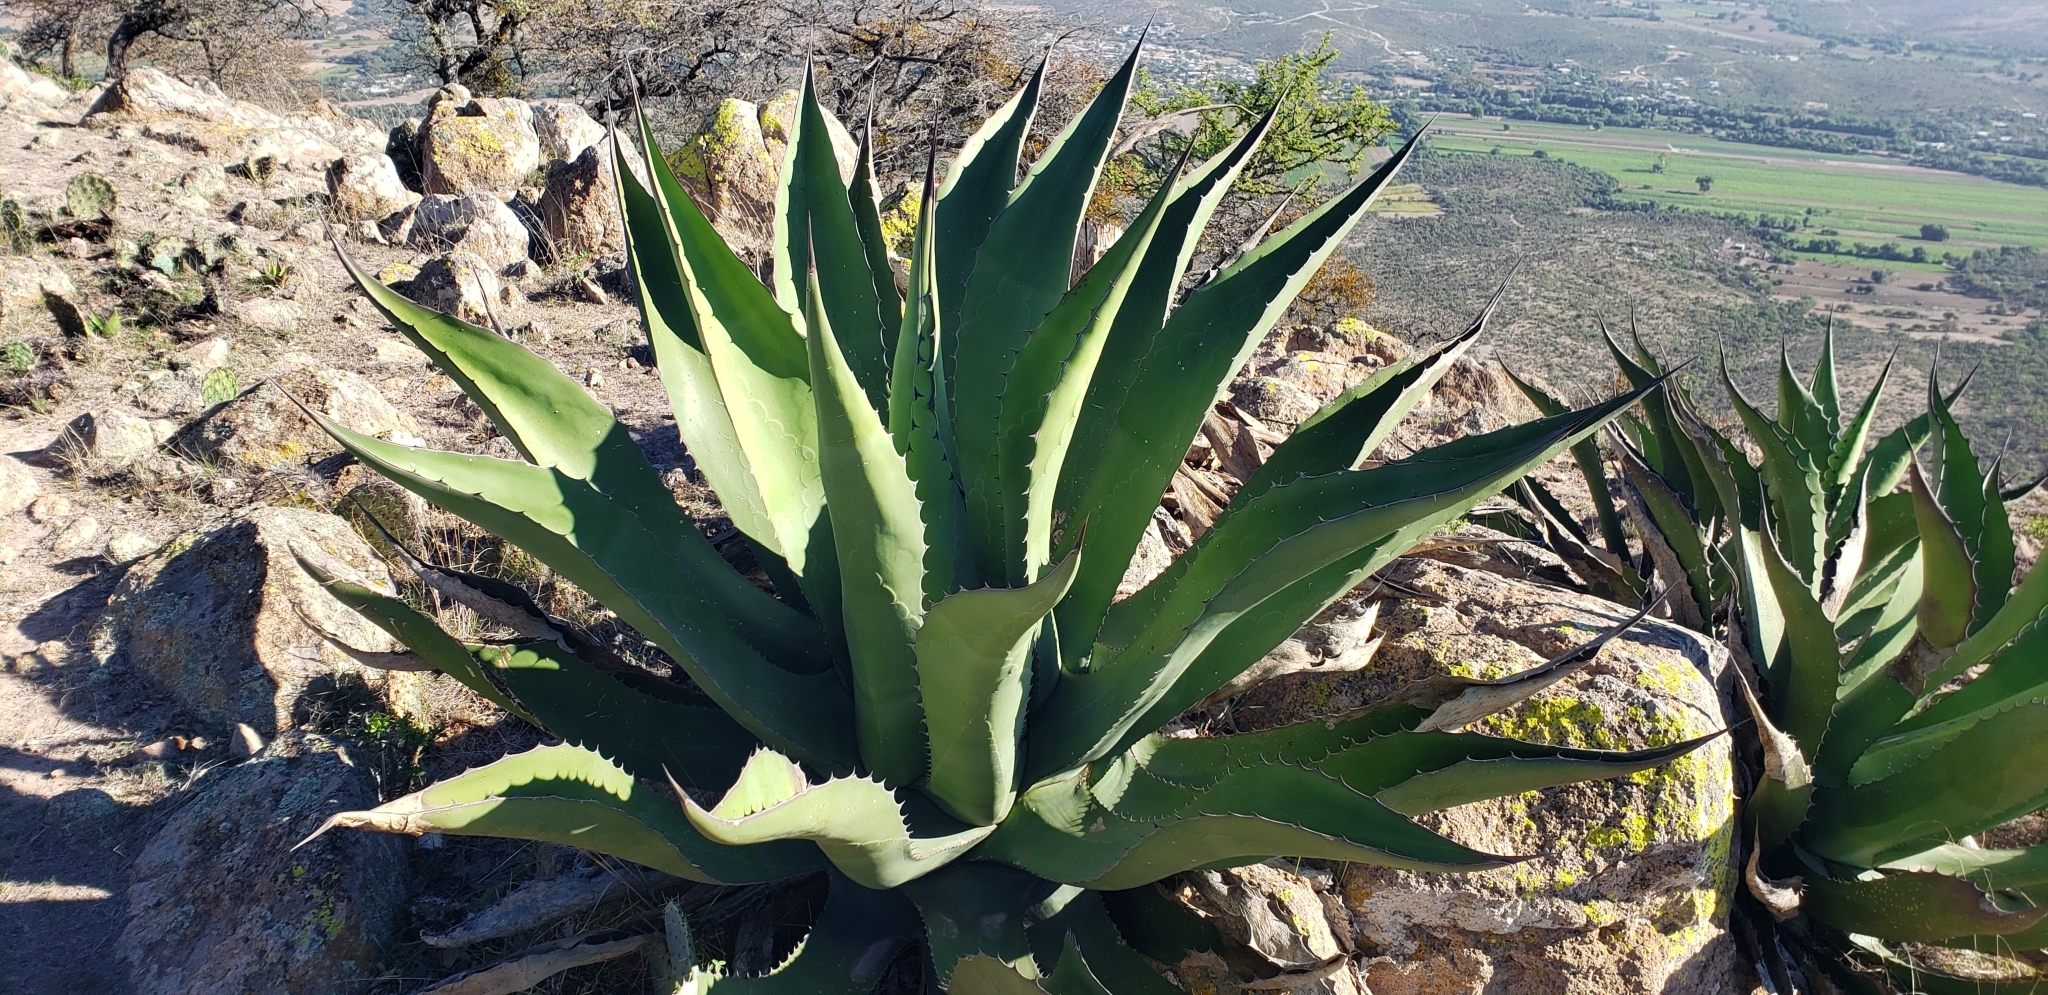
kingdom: Plantae
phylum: Tracheophyta
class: Liliopsida
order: Asparagales
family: Asparagaceae
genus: Agave
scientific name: Agave salmiana
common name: Pulque agave
